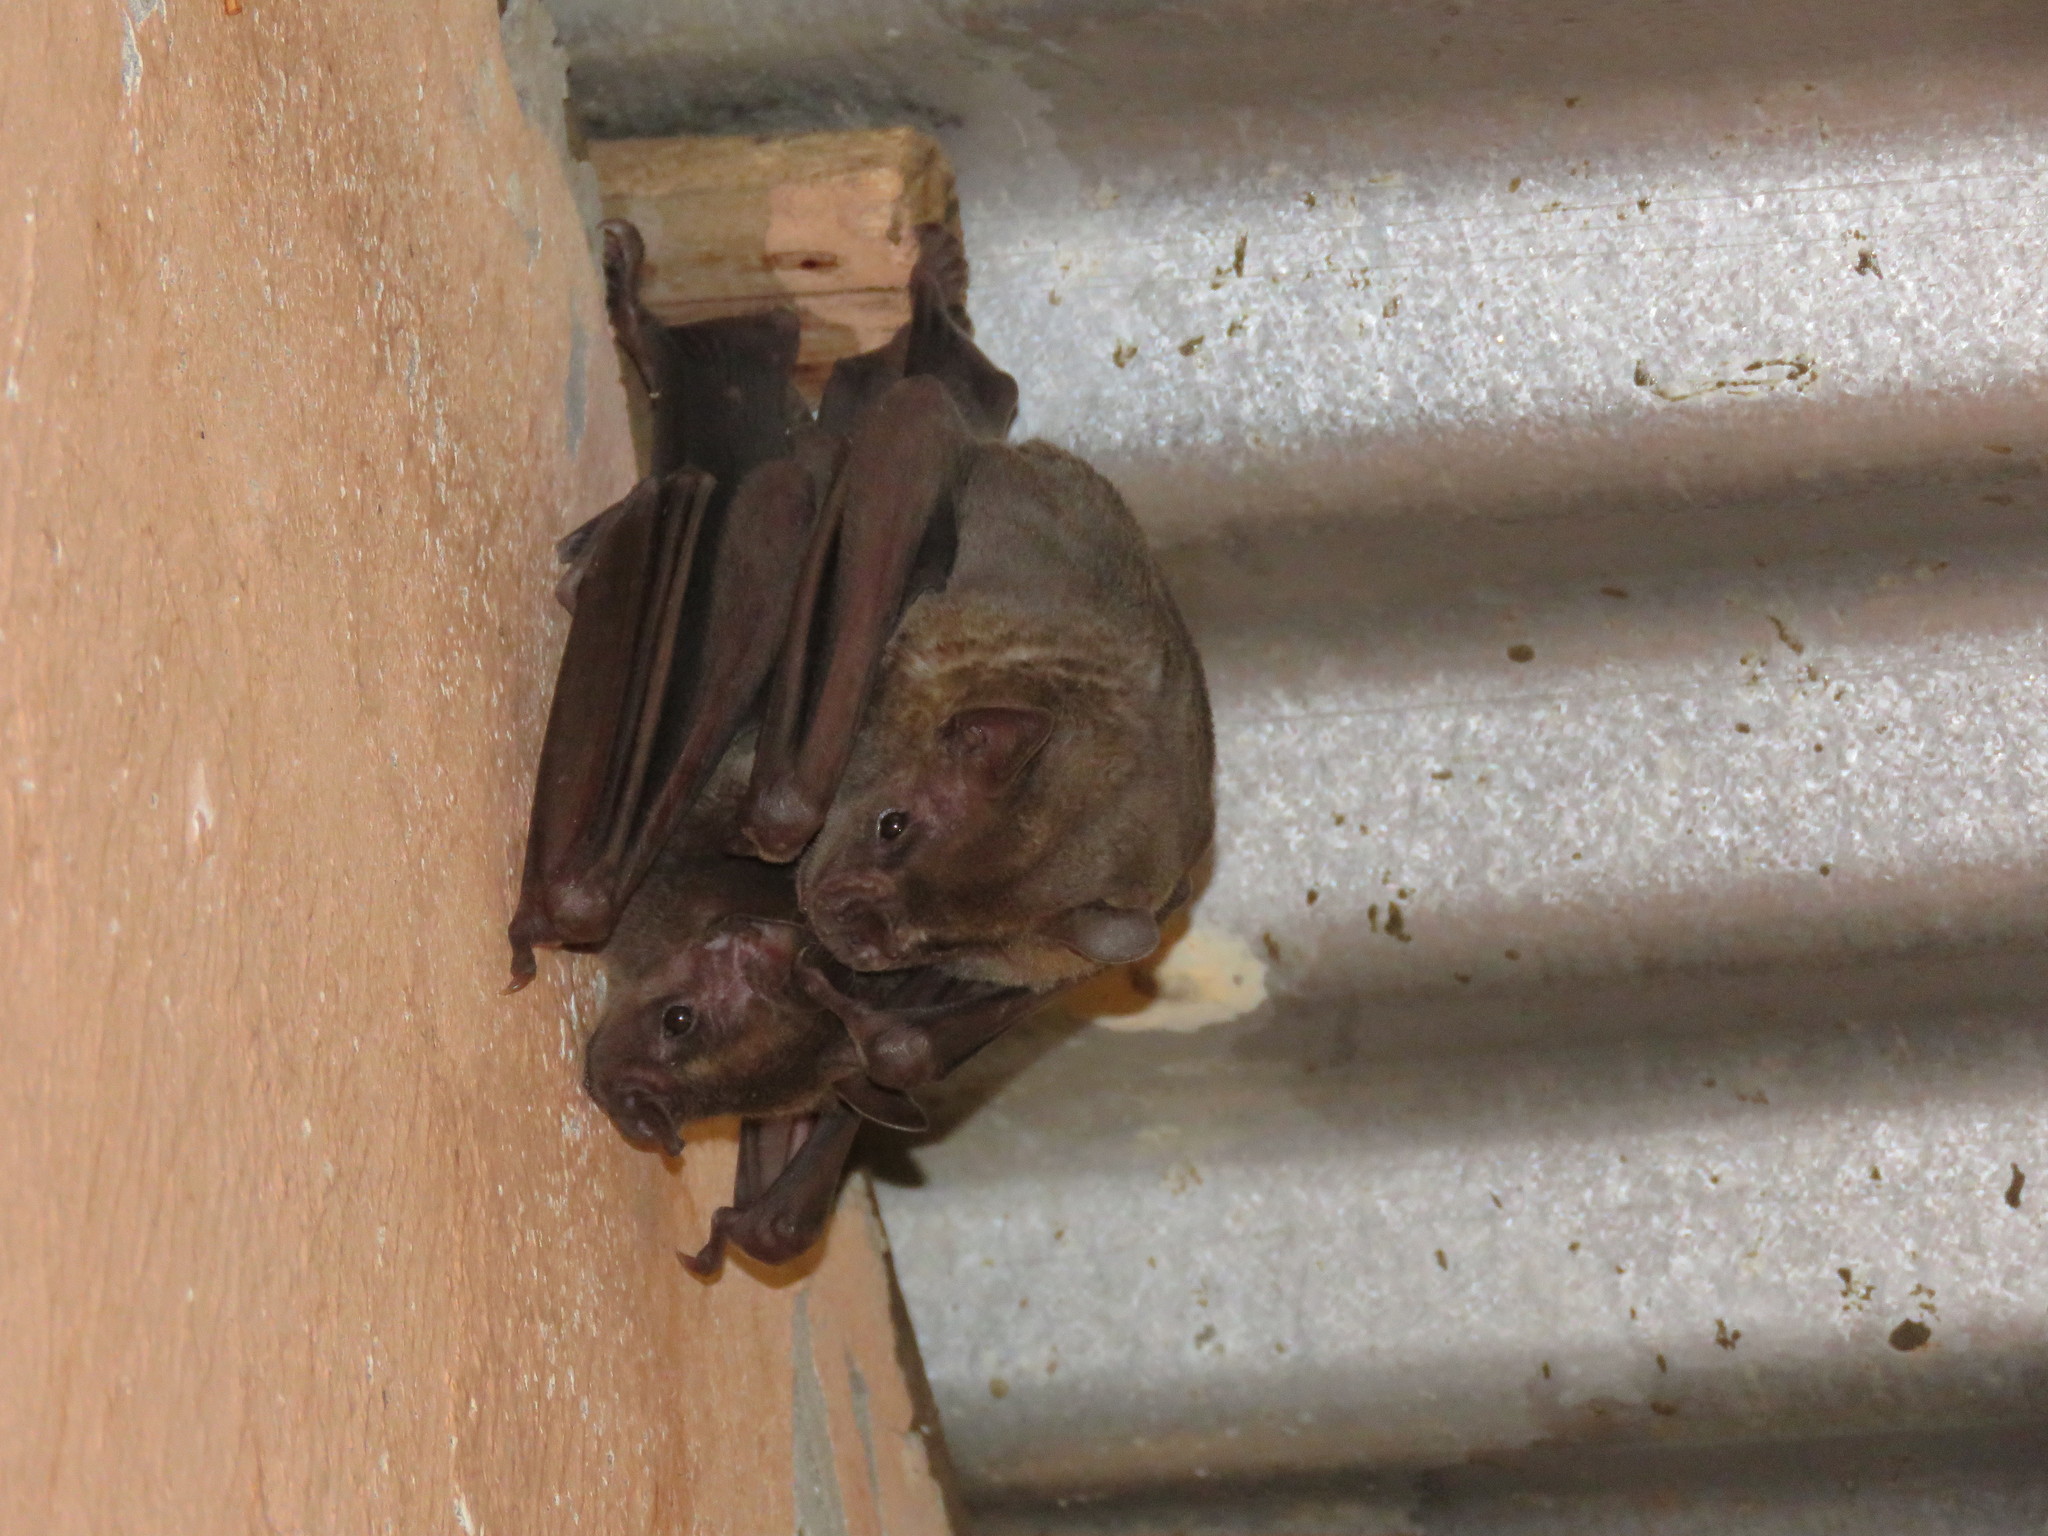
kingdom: Animalia
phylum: Chordata
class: Mammalia
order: Chiroptera
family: Phyllostomidae
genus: Artibeus
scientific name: Artibeus planirostris
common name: Flat-faced fruit-eating bat
